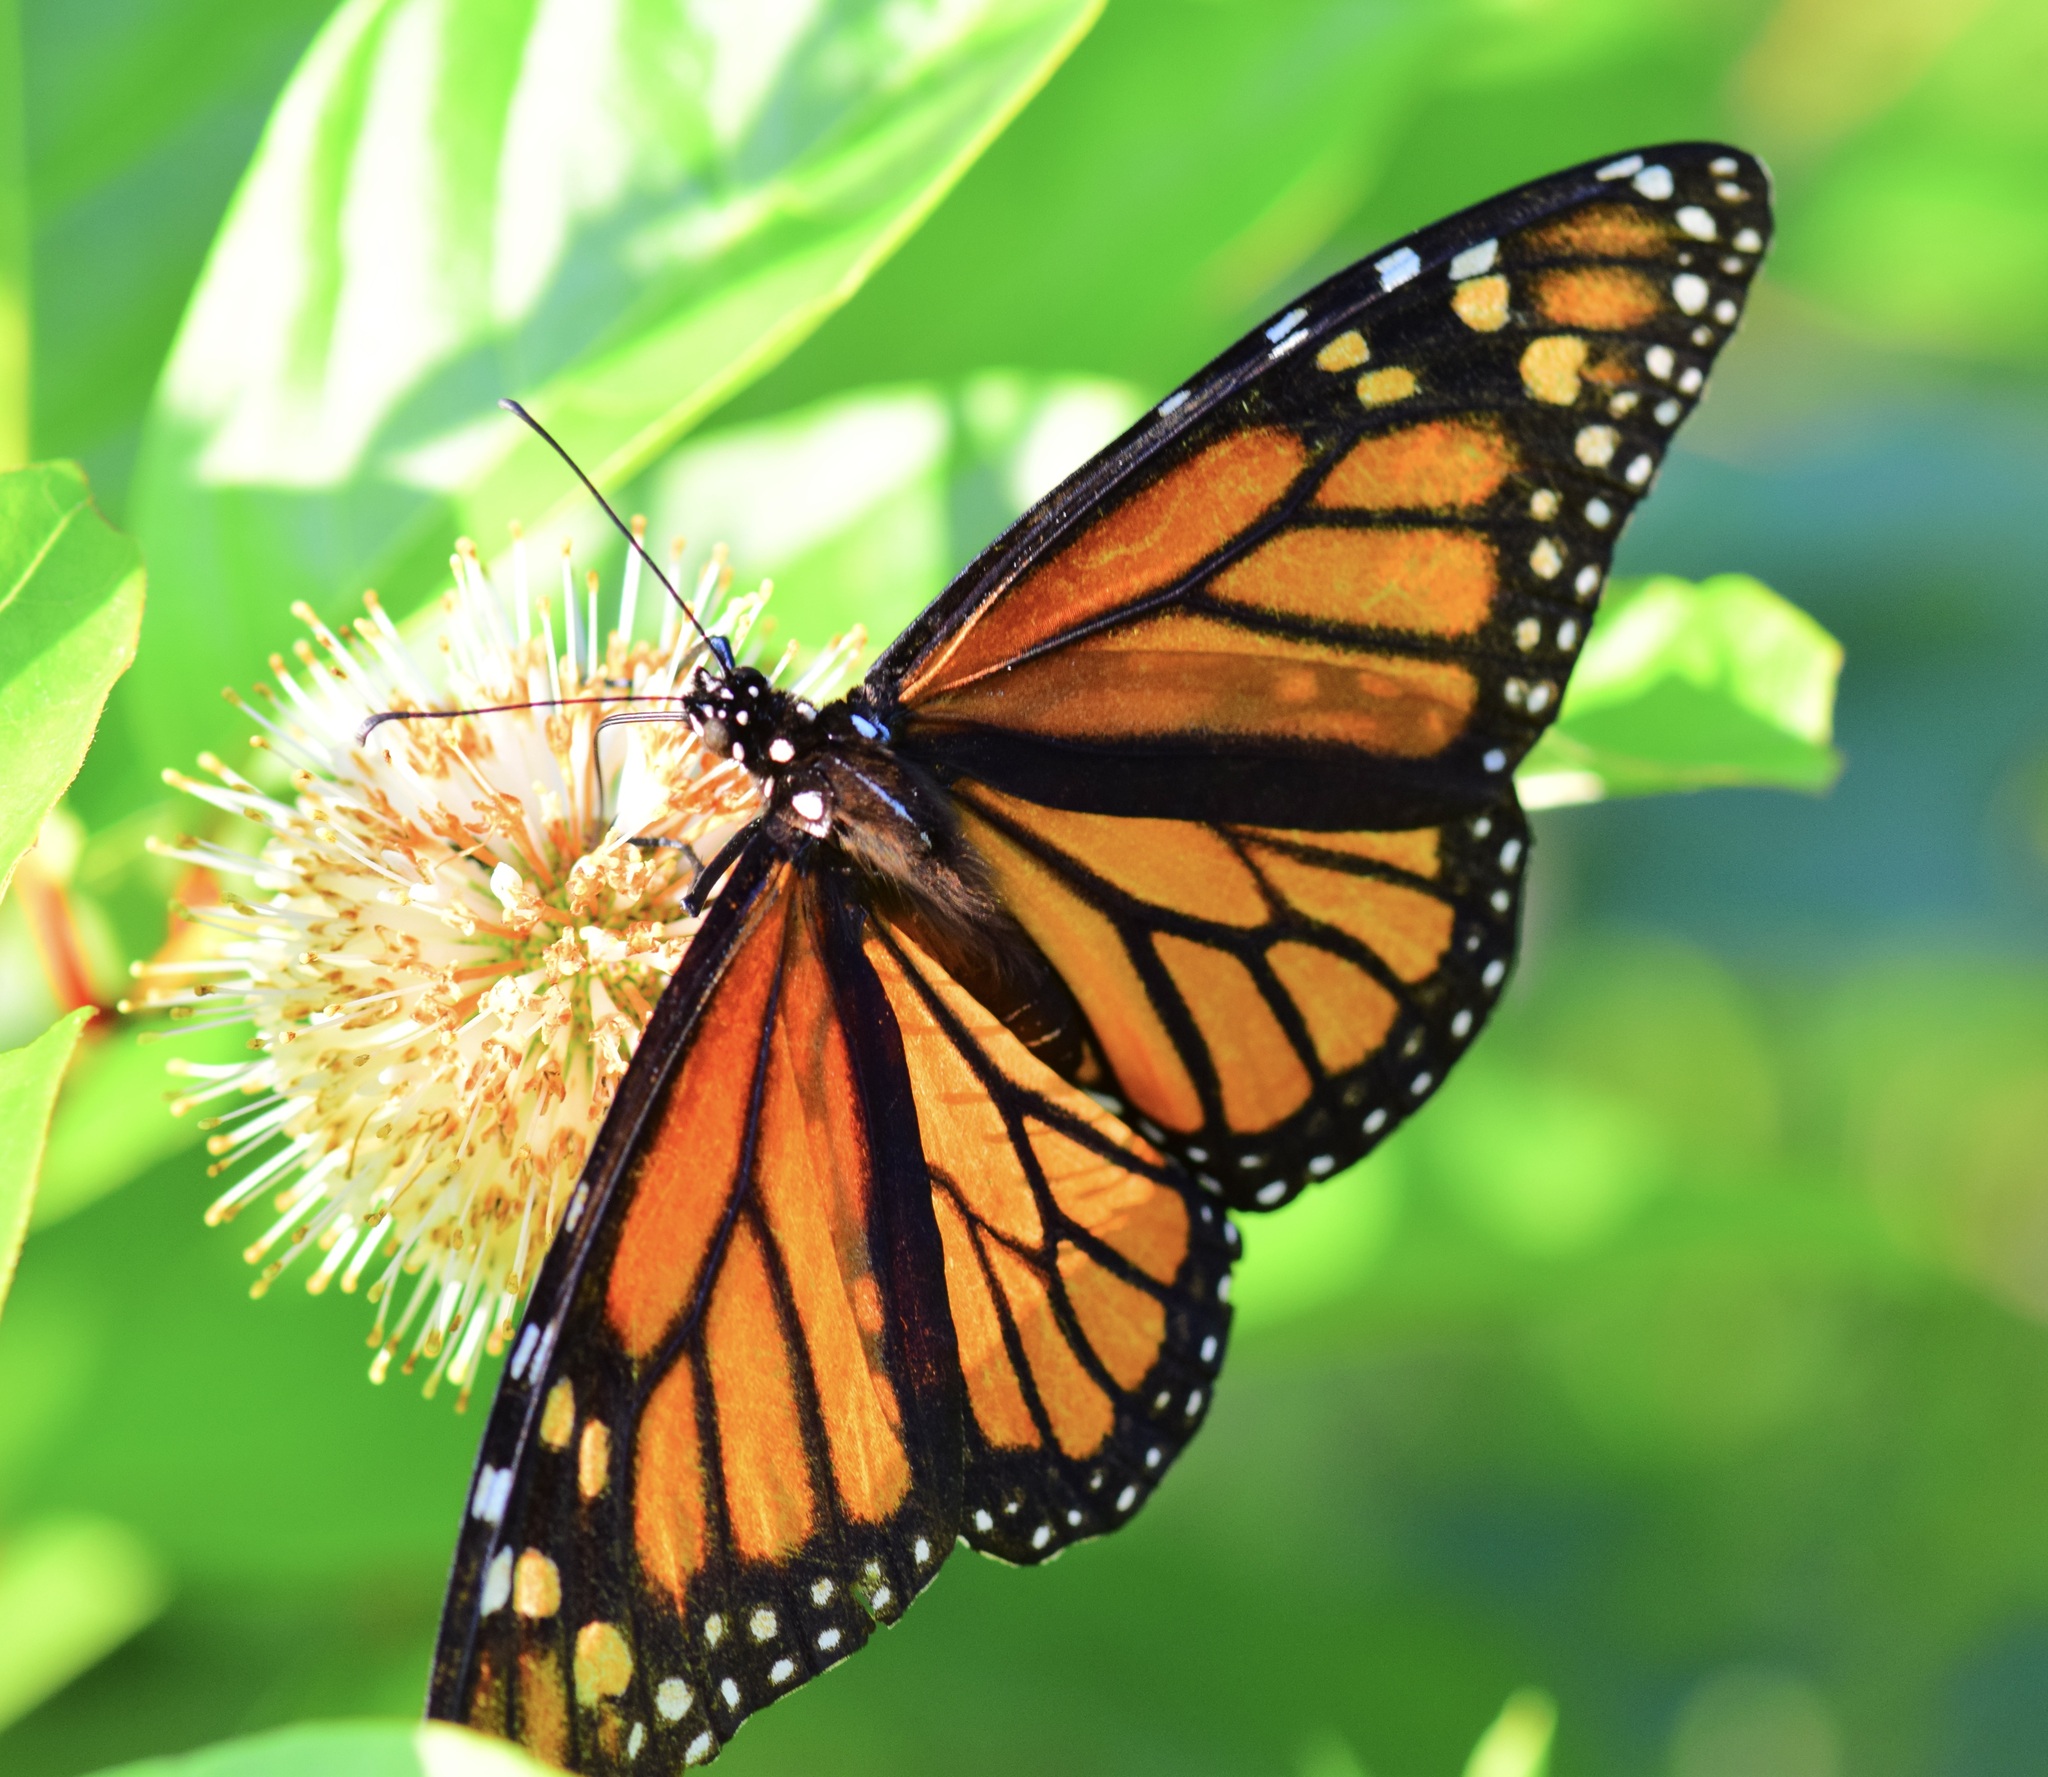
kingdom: Animalia
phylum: Arthropoda
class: Insecta
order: Lepidoptera
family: Nymphalidae
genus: Danaus
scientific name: Danaus plexippus
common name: Monarch
